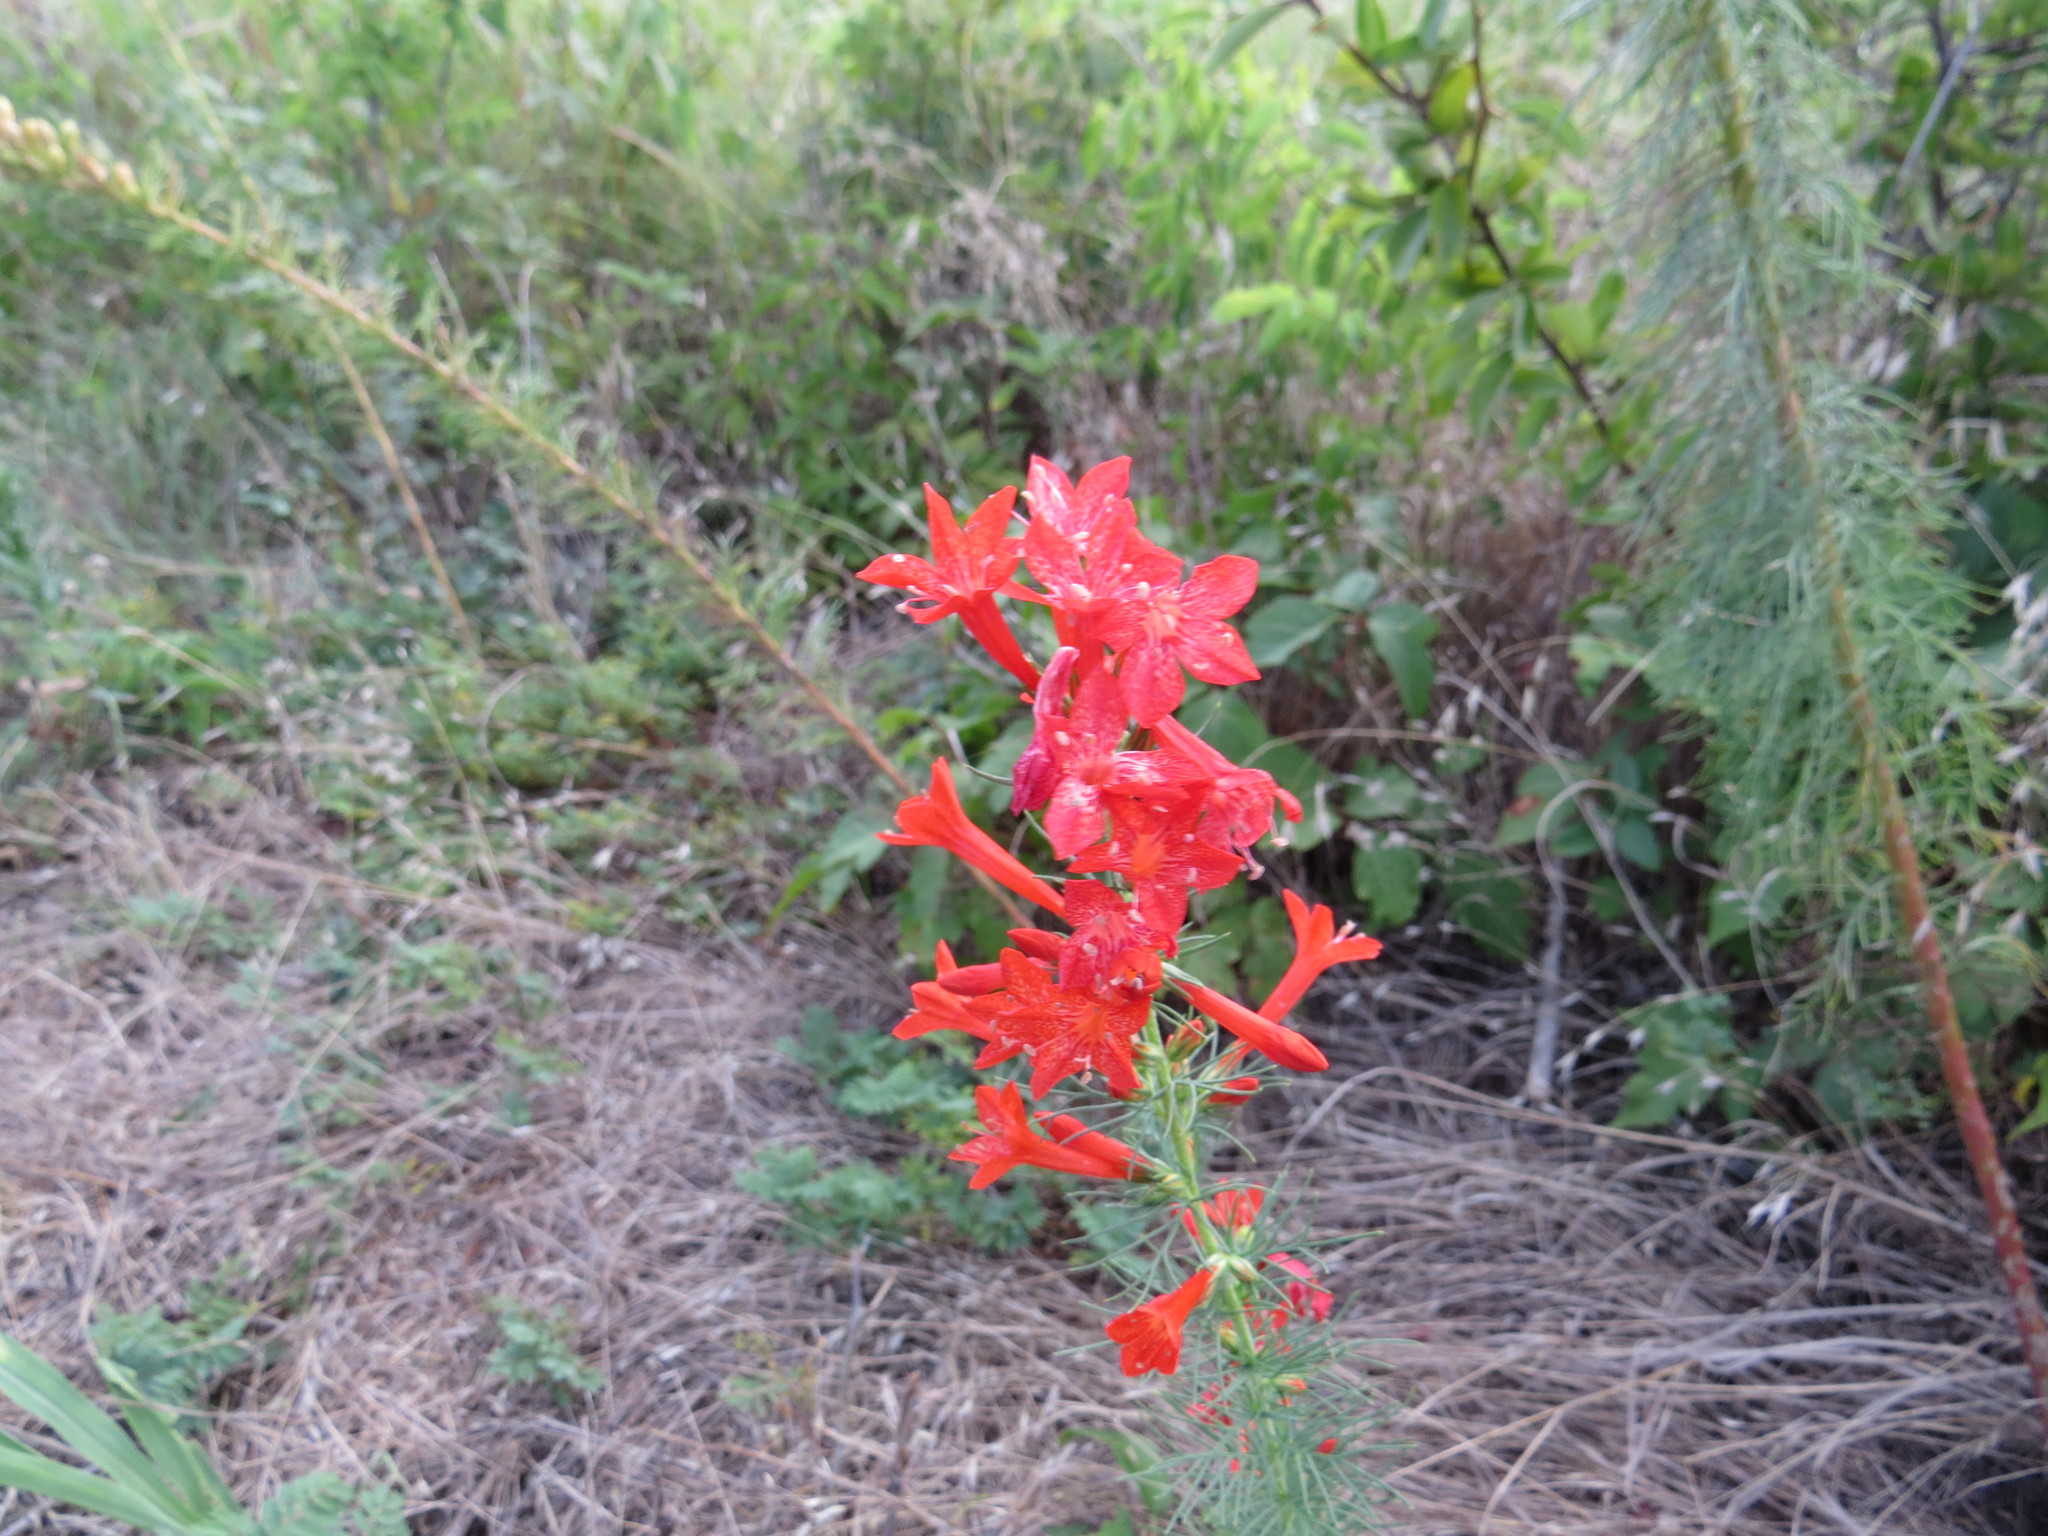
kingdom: Plantae
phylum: Tracheophyta
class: Magnoliopsida
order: Ericales
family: Polemoniaceae
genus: Ipomopsis
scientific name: Ipomopsis rubra
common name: Skyrocket
